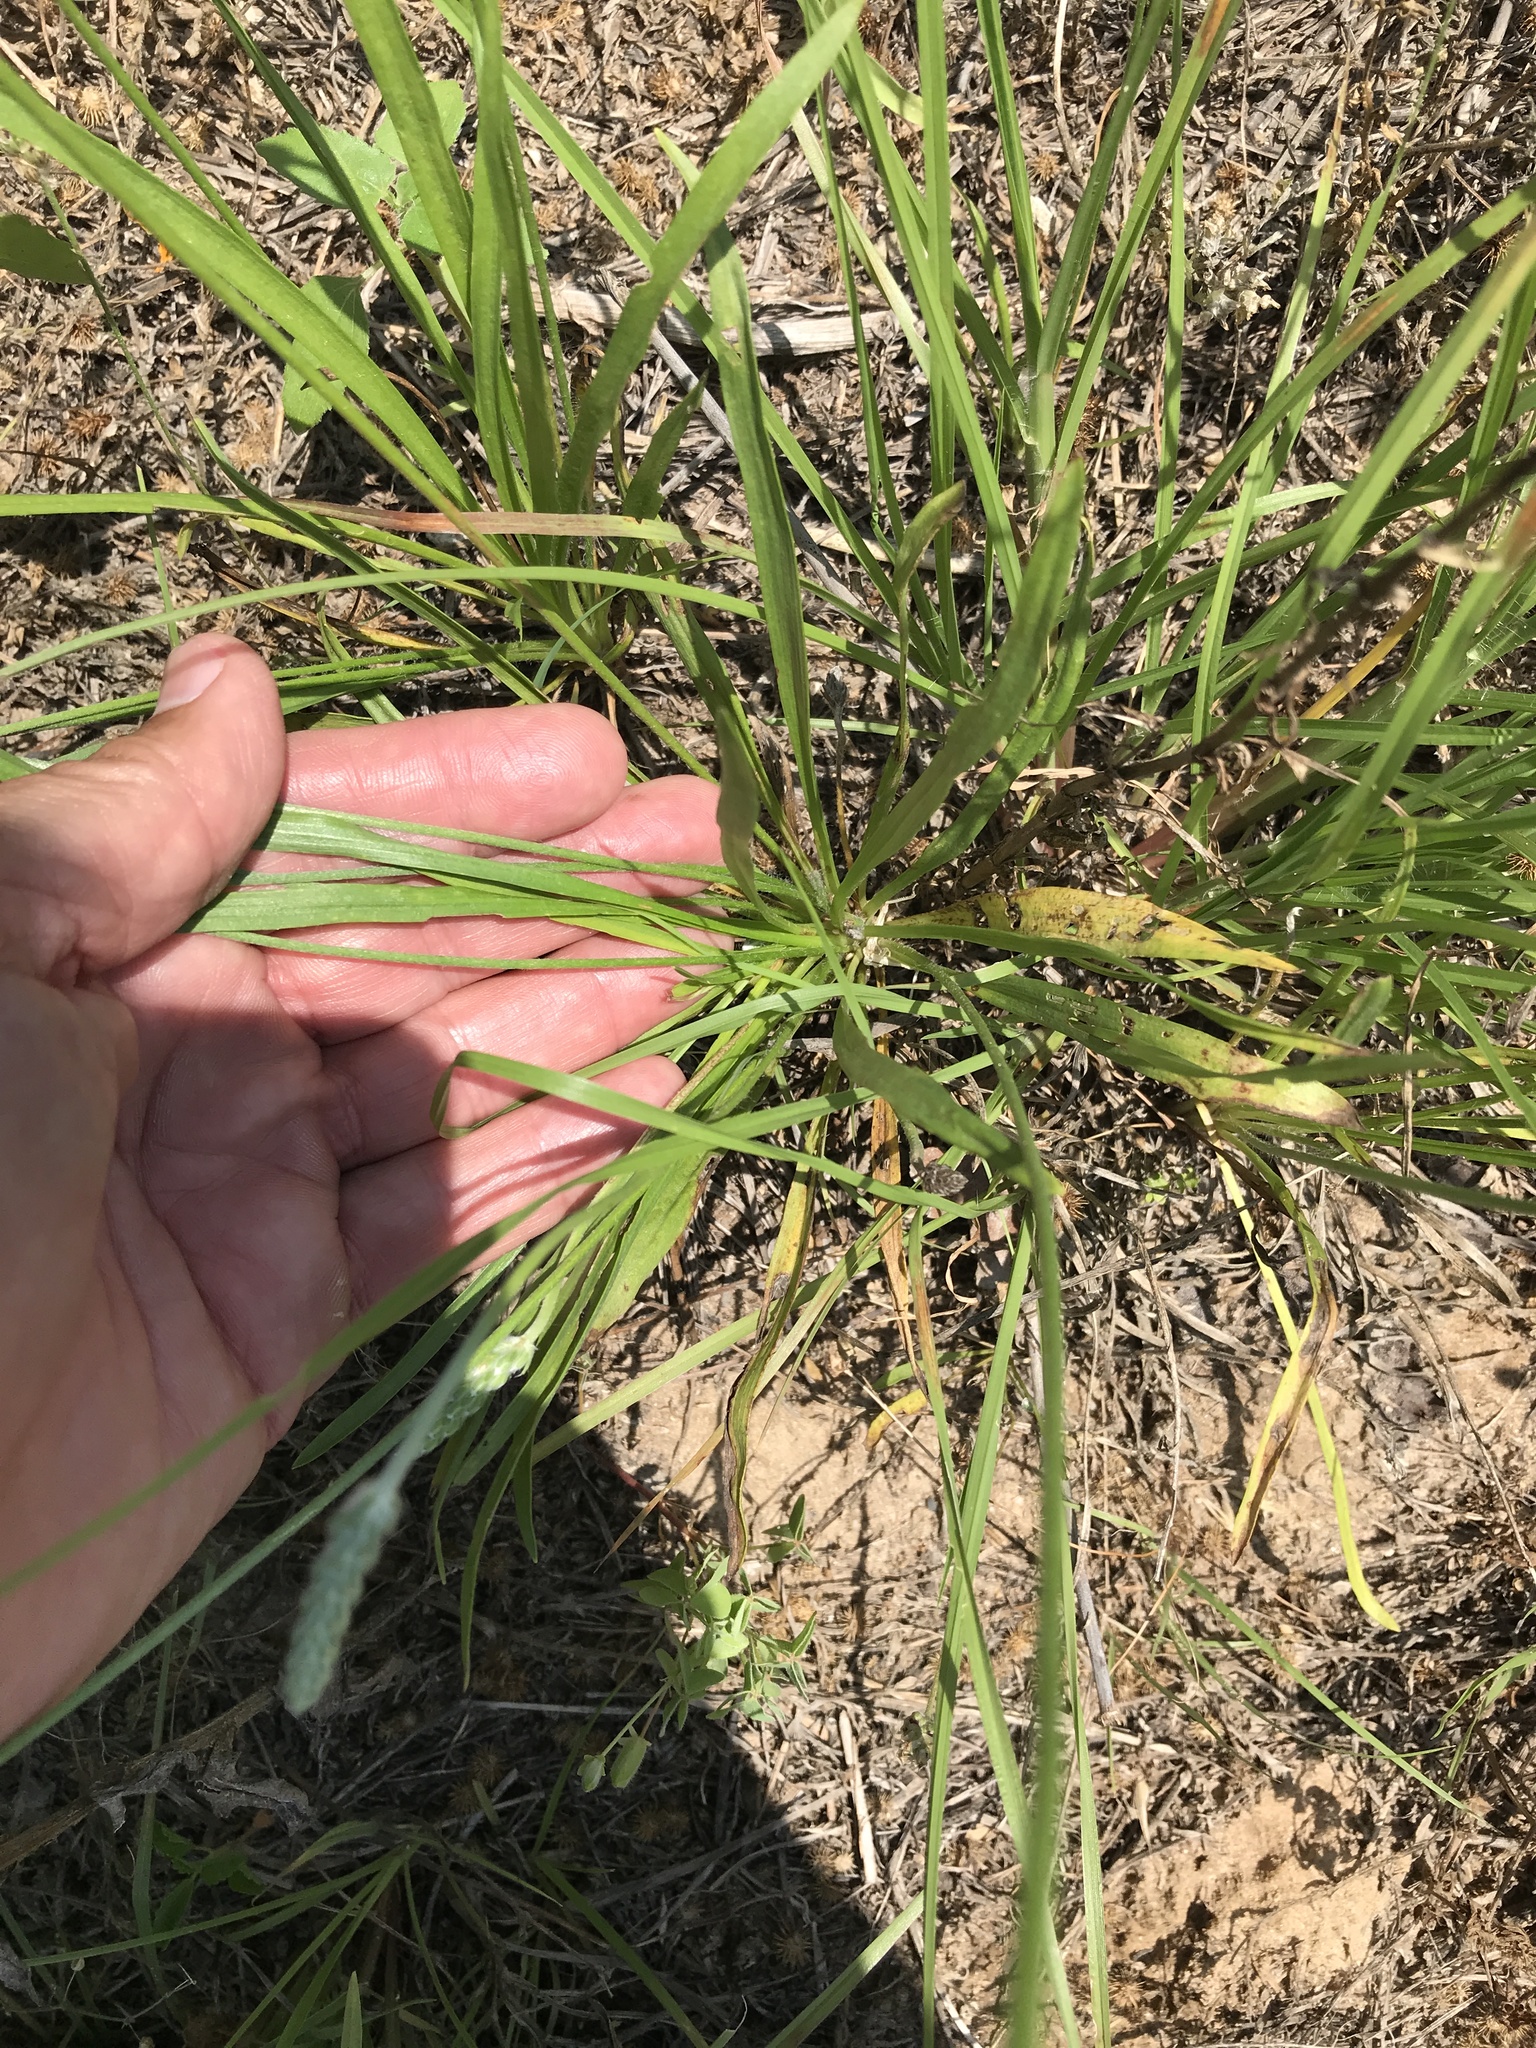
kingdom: Plantae
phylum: Tracheophyta
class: Magnoliopsida
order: Lamiales
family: Plantaginaceae
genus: Plantago
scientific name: Plantago wrightiana
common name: Wright's plantain
